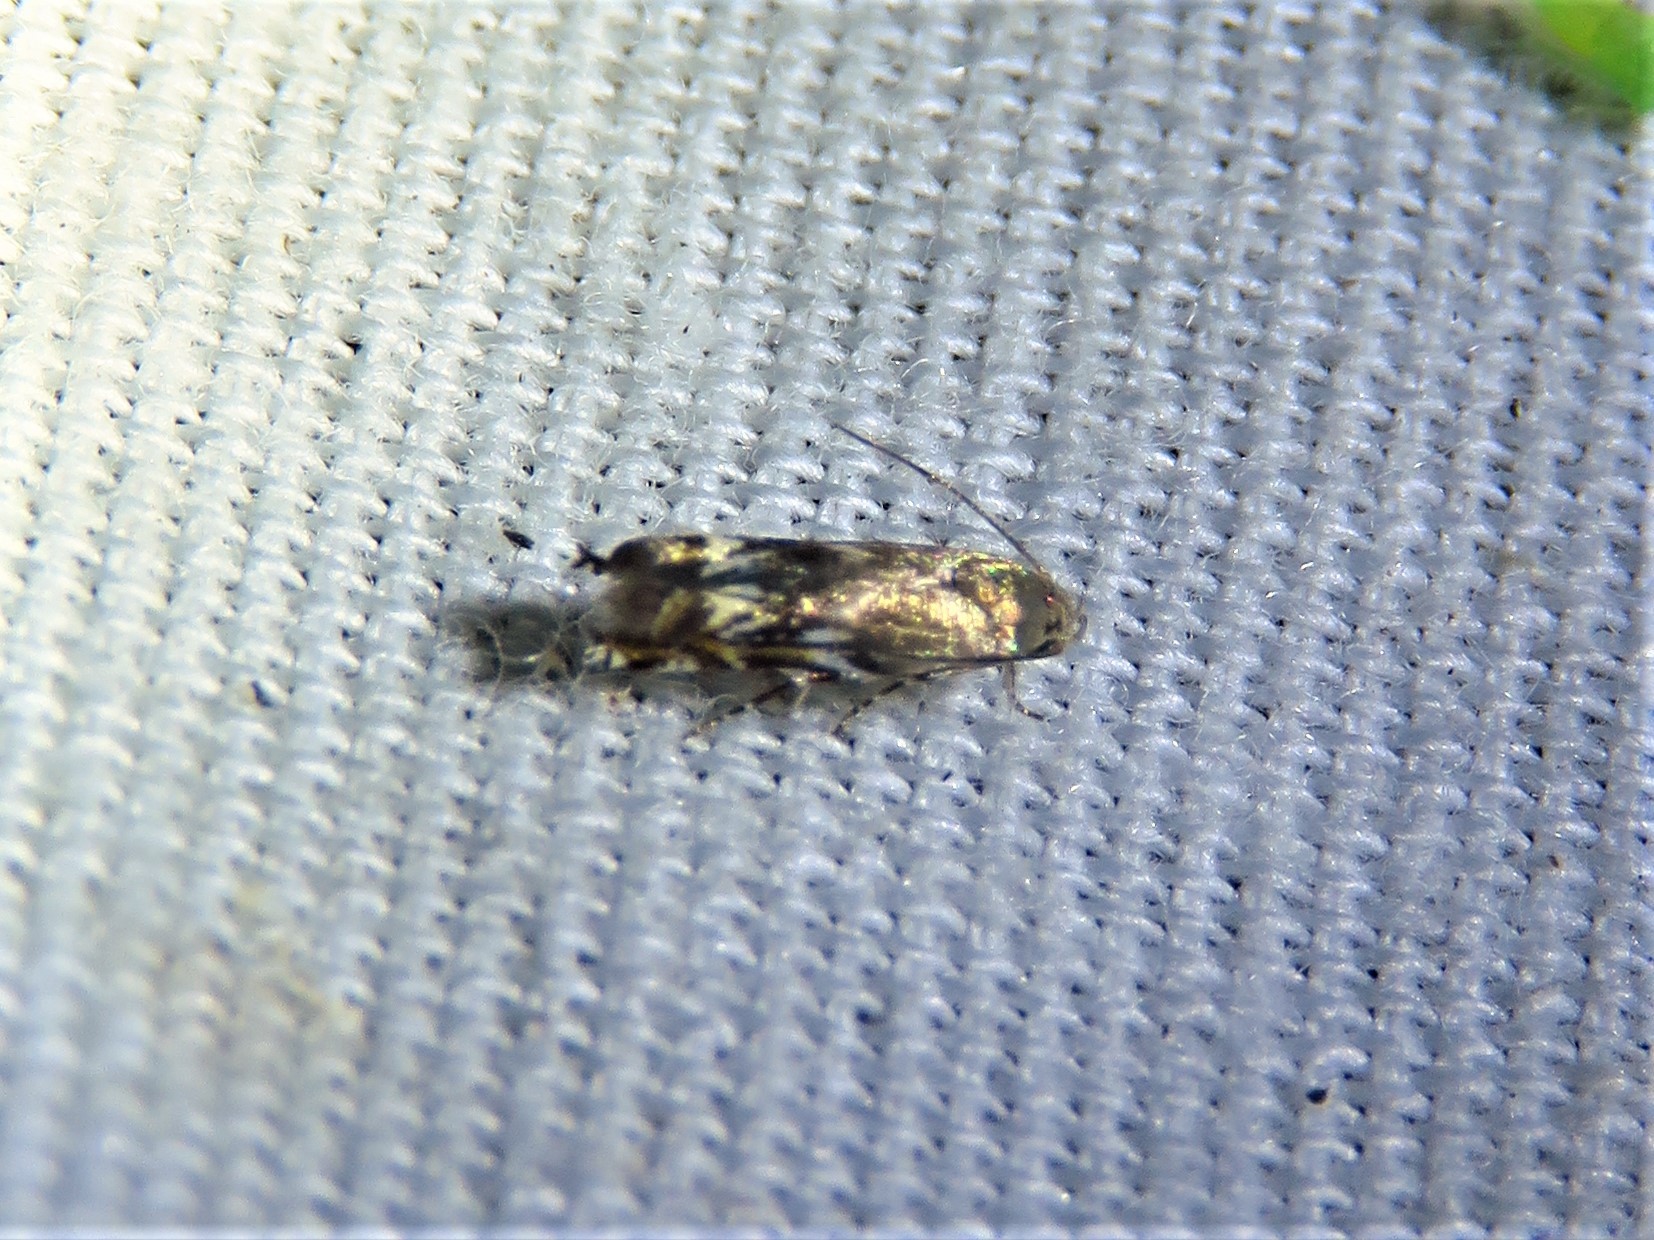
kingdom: Animalia
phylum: Arthropoda
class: Insecta
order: Lepidoptera
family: Gelechiidae
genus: Calliprora
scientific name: Calliprora sexstrigella
